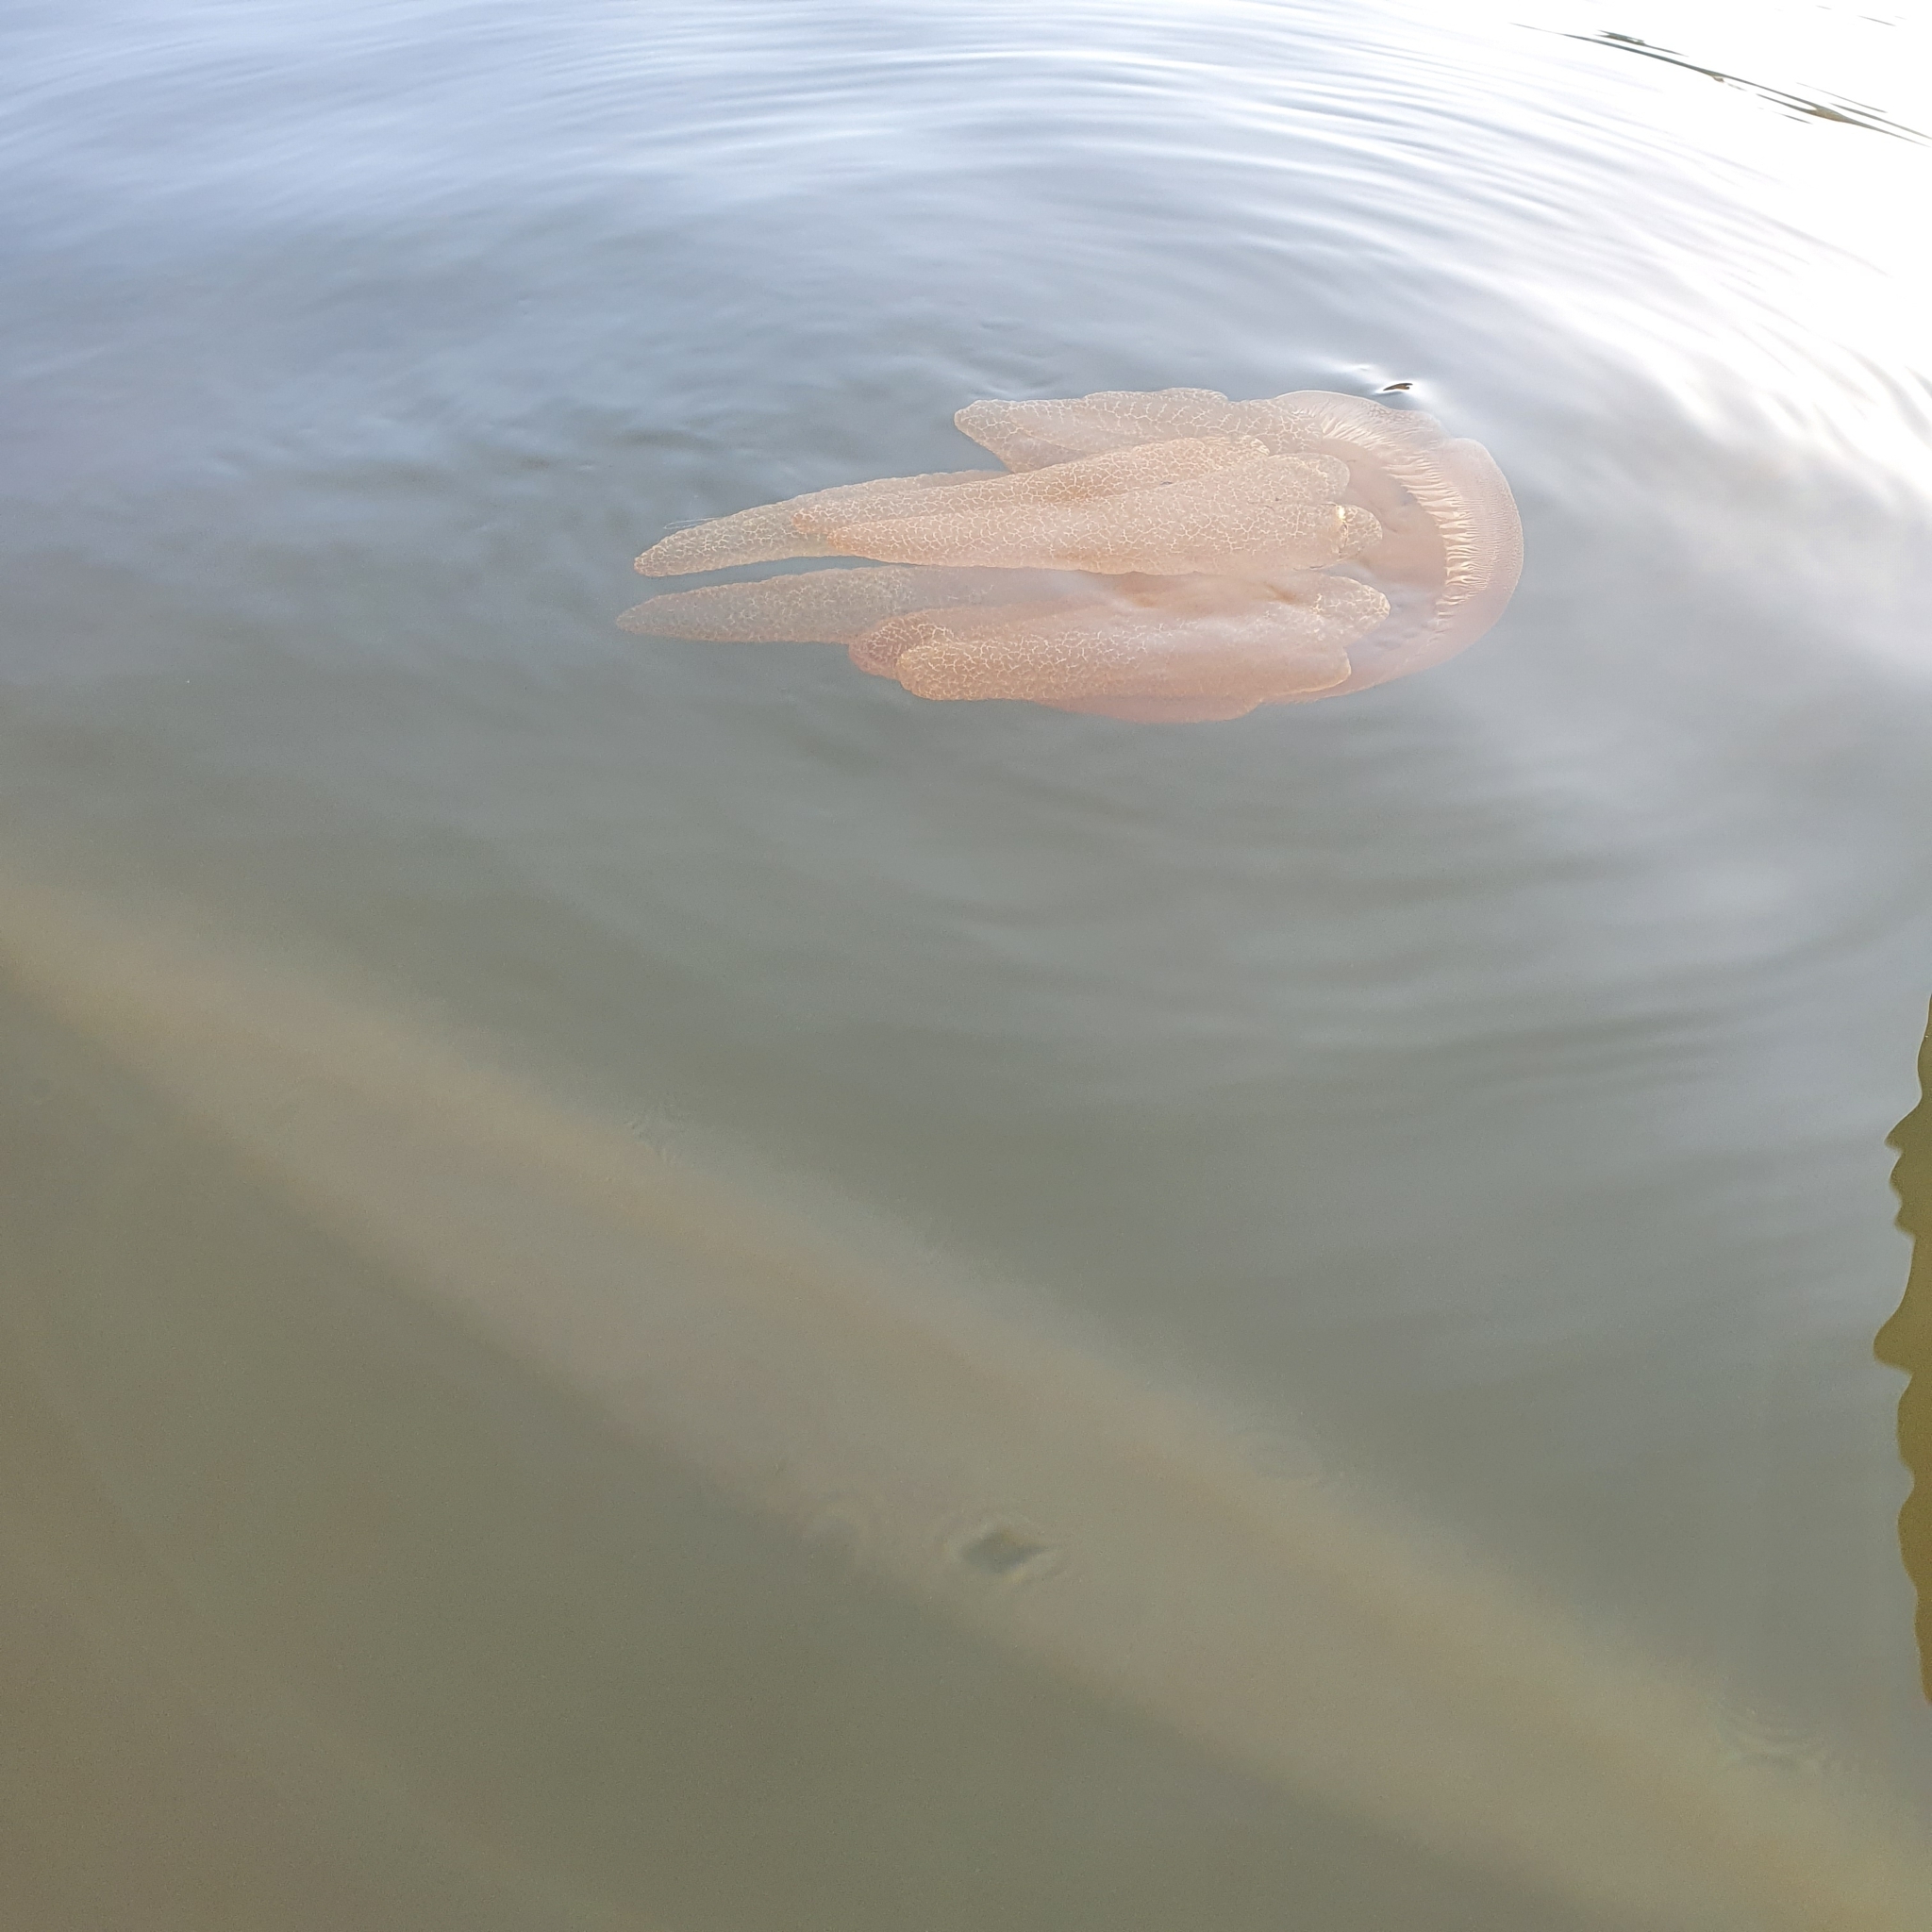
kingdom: Animalia
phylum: Cnidaria
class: Scyphozoa
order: Rhizostomeae
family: Catostylidae
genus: Catostylus
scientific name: Catostylus mosaicus
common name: Blue blubber
